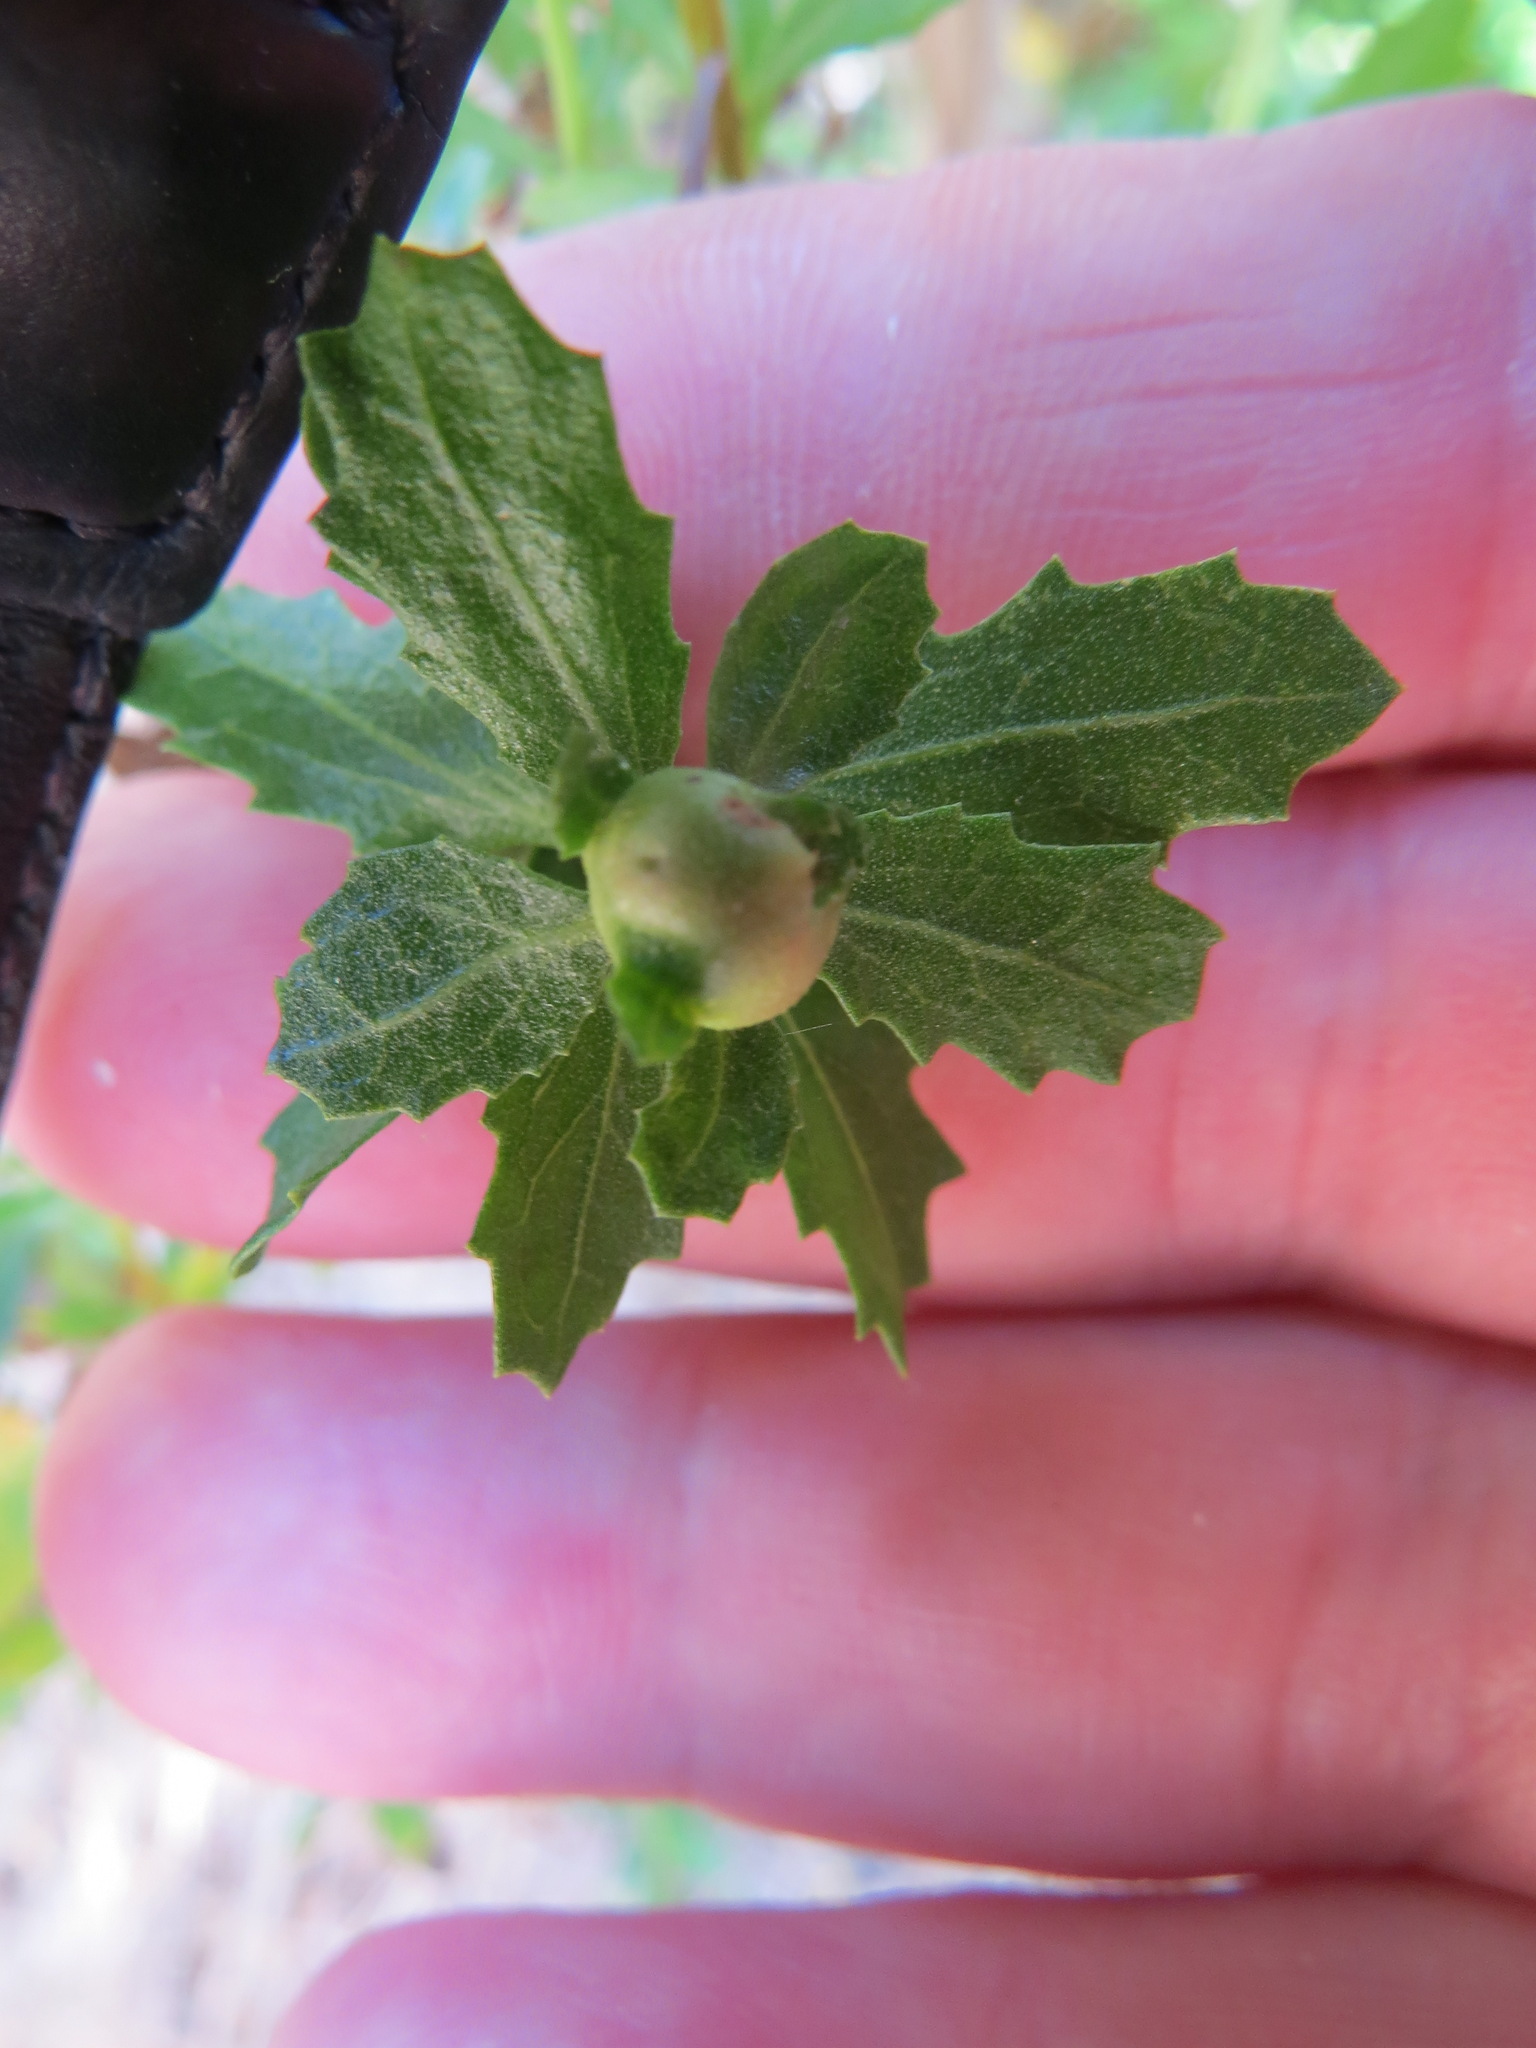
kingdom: Animalia
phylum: Arthropoda
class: Insecta
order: Diptera
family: Cecidomyiidae
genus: Rhopalomyia
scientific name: Rhopalomyia californica
